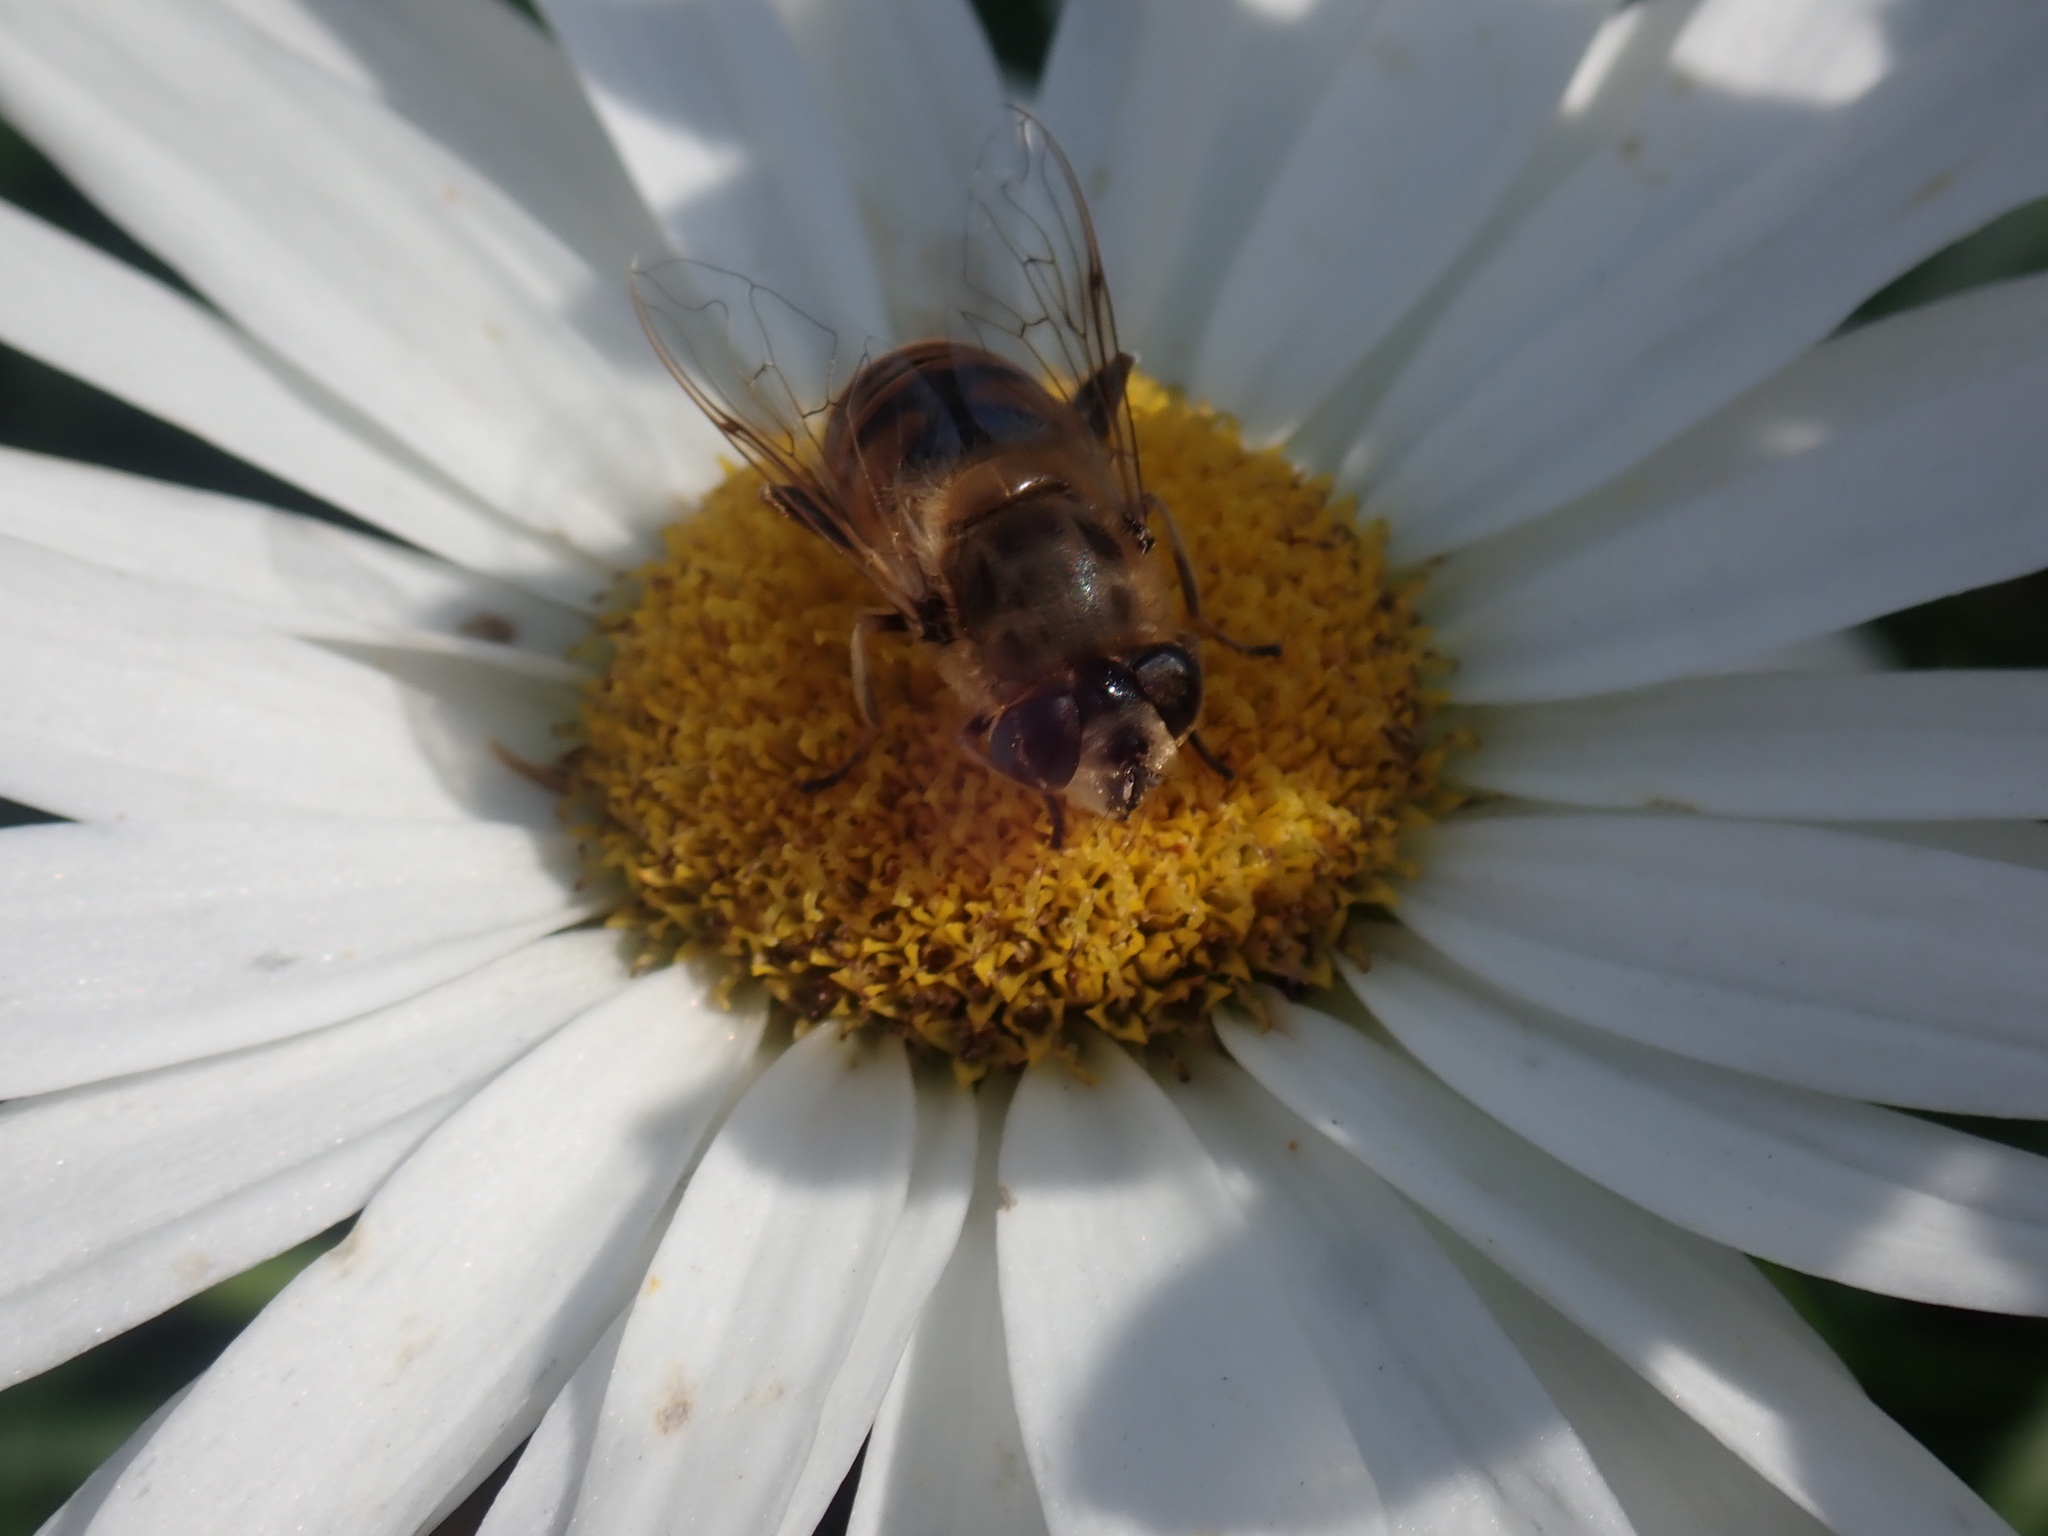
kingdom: Animalia
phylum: Arthropoda
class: Insecta
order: Diptera
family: Syrphidae
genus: Eristalis
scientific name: Eristalis tenax
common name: Drone fly
